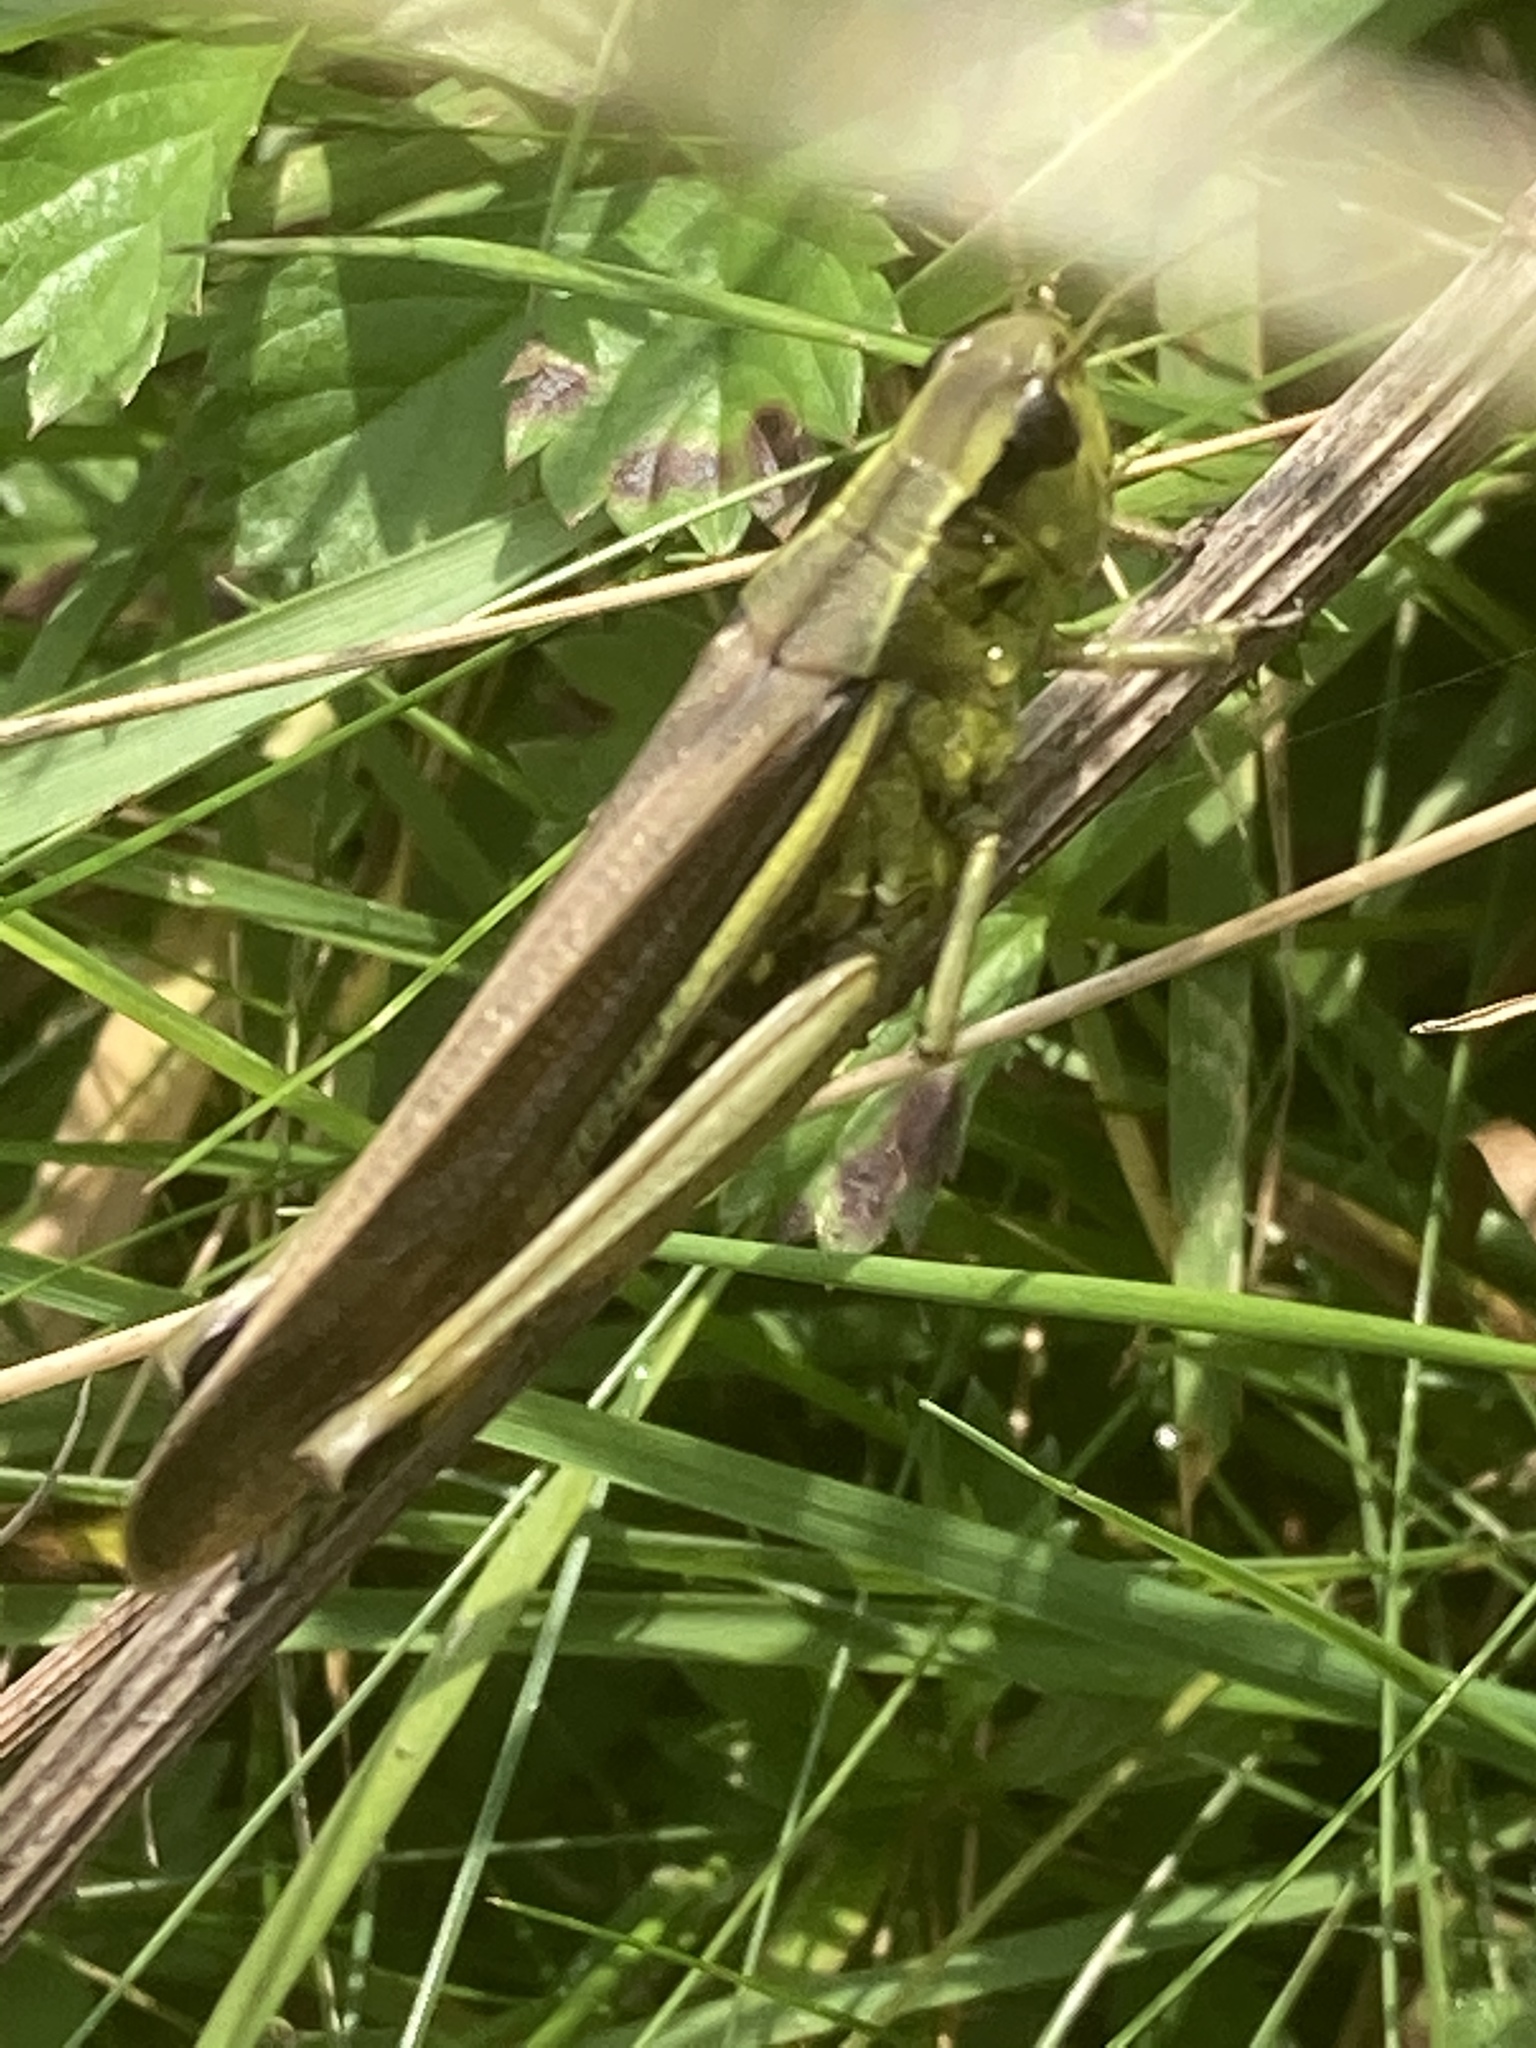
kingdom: Animalia
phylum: Arthropoda
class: Insecta
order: Orthoptera
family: Acrididae
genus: Stethophyma
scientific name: Stethophyma grossum
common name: Large marsh grasshopper
